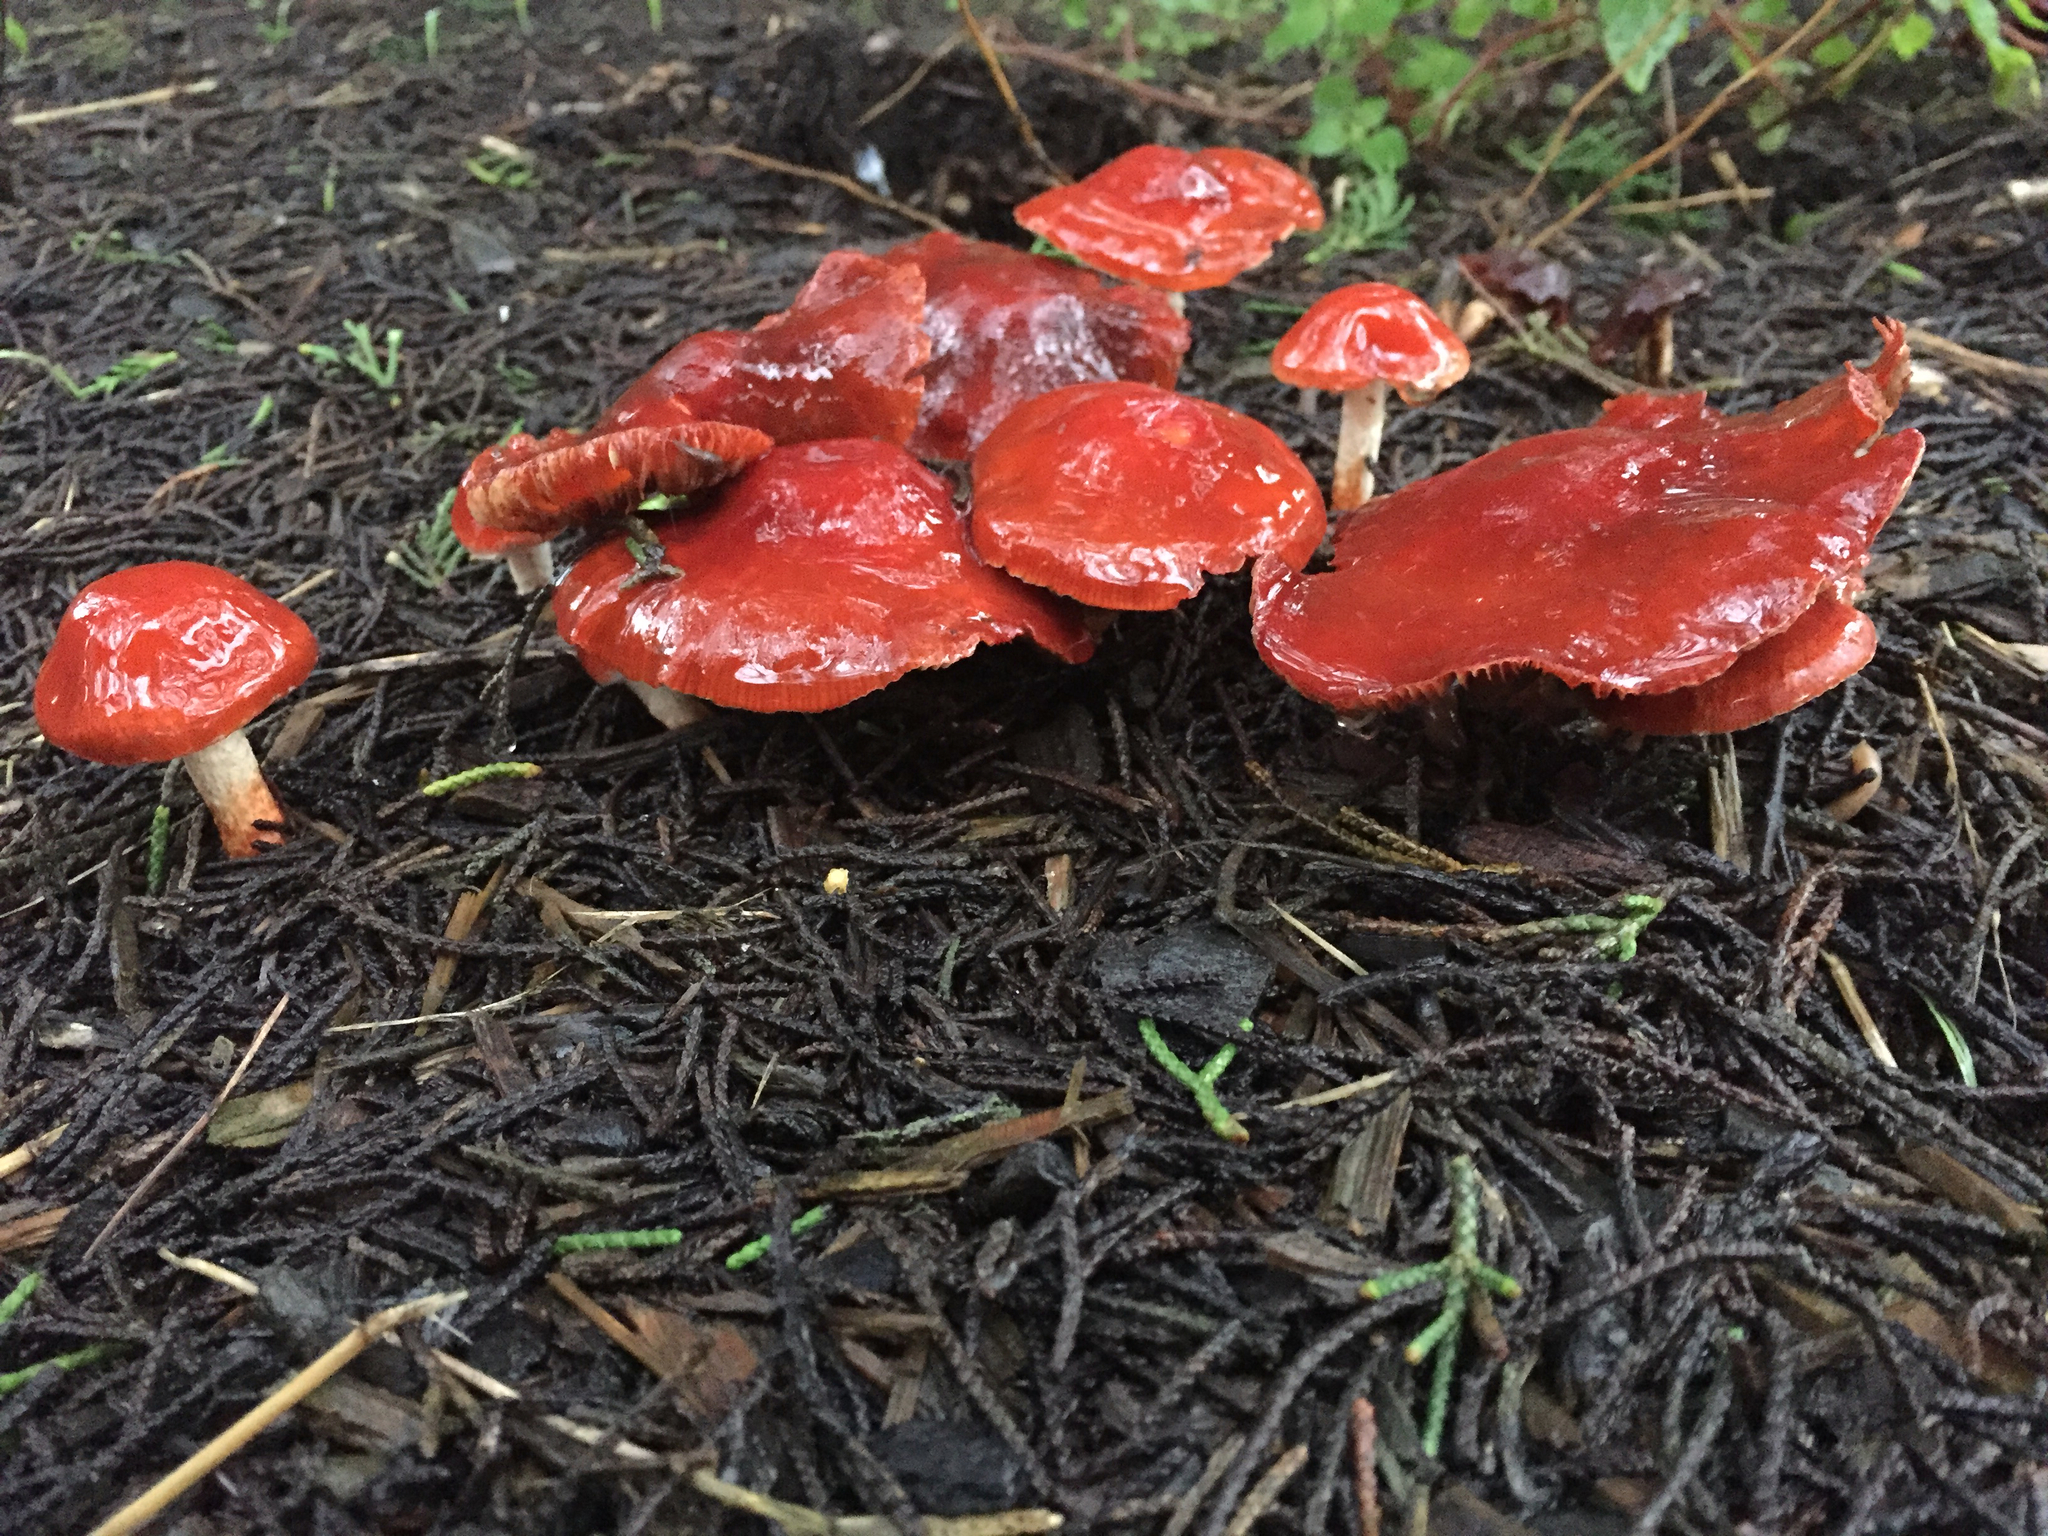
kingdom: Fungi
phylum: Basidiomycota
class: Agaricomycetes
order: Agaricales
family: Strophariaceae
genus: Leratiomyces
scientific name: Leratiomyces ceres
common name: Redlead roundhead
